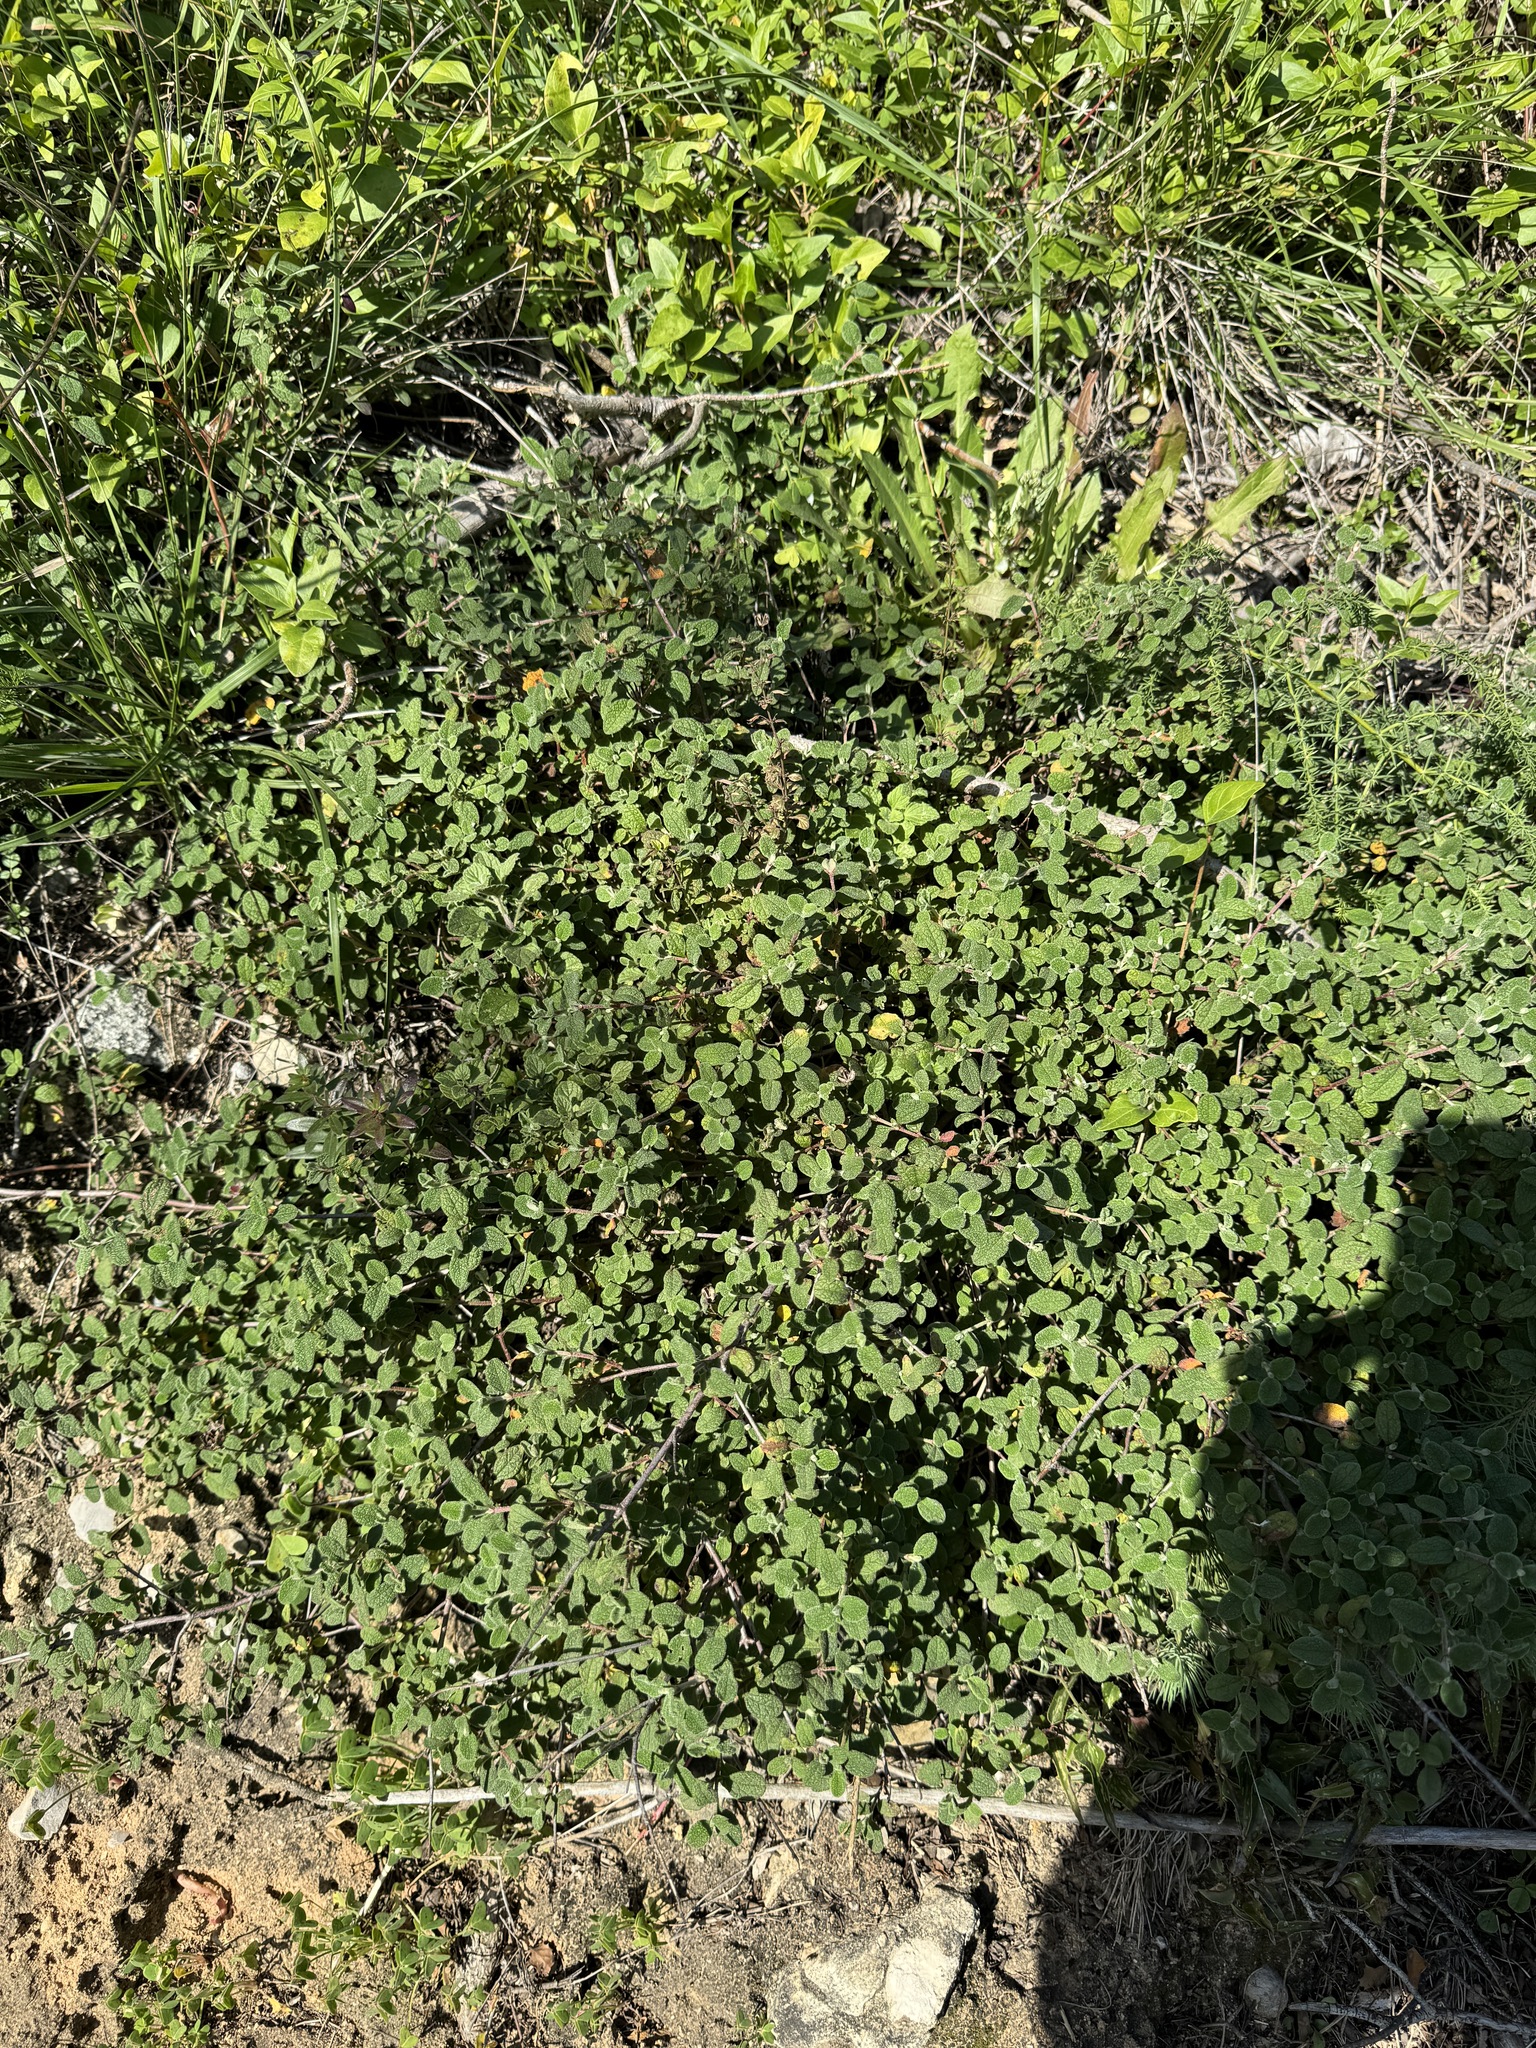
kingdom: Plantae
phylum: Tracheophyta
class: Magnoliopsida
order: Malvales
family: Cistaceae
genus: Cistus
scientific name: Cistus salviifolius
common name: Salvia cistus
